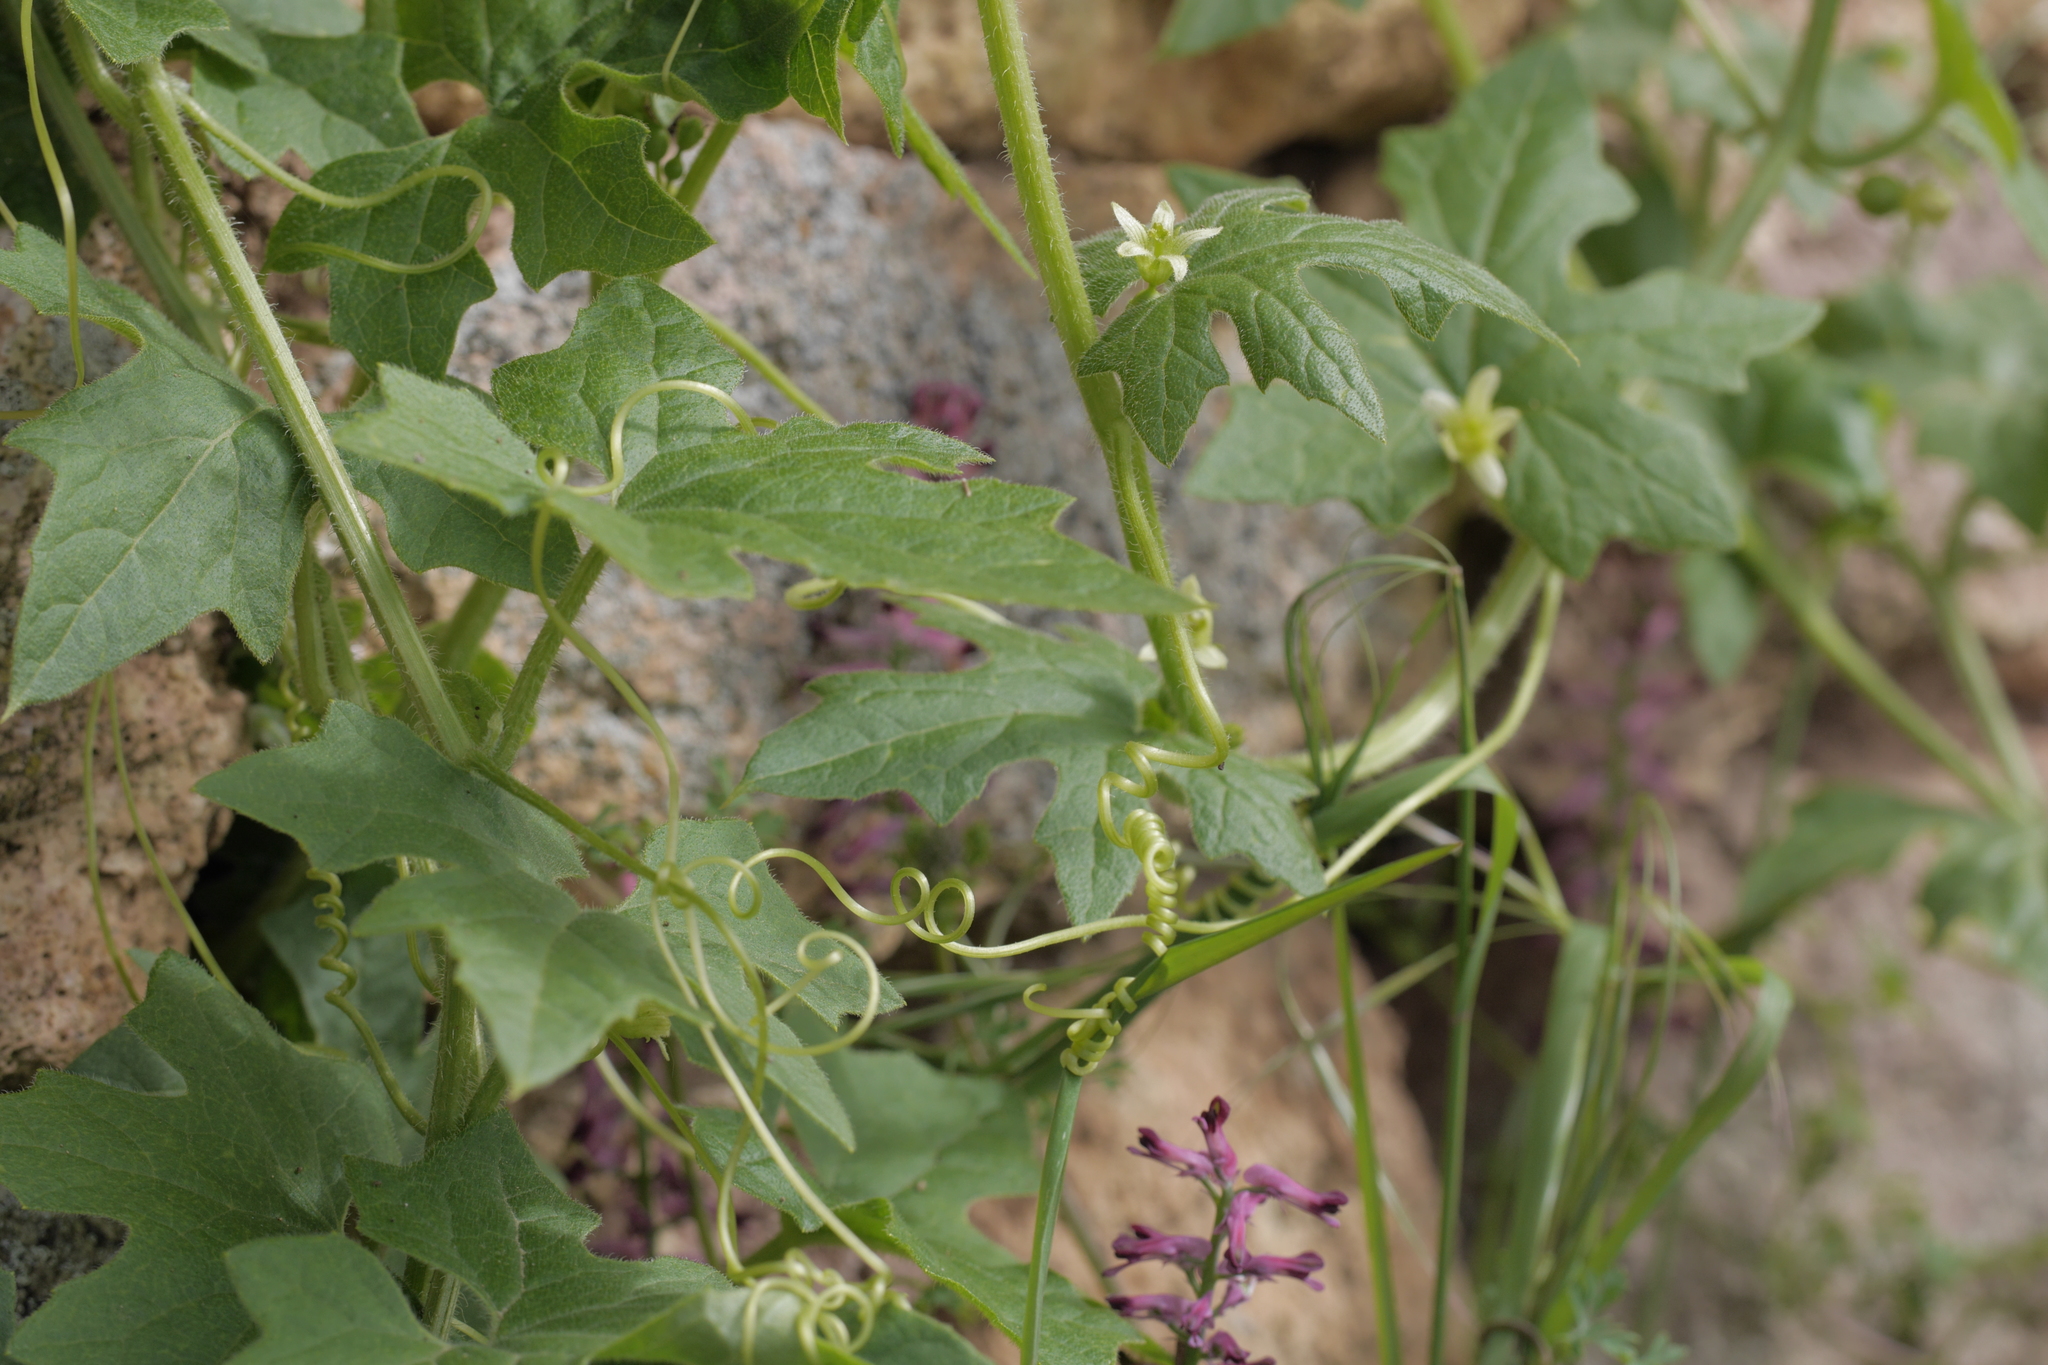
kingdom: Plantae
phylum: Tracheophyta
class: Magnoliopsida
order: Cucurbitales
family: Cucurbitaceae
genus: Bryonia
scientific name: Bryonia cretica
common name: Cretan bryony
